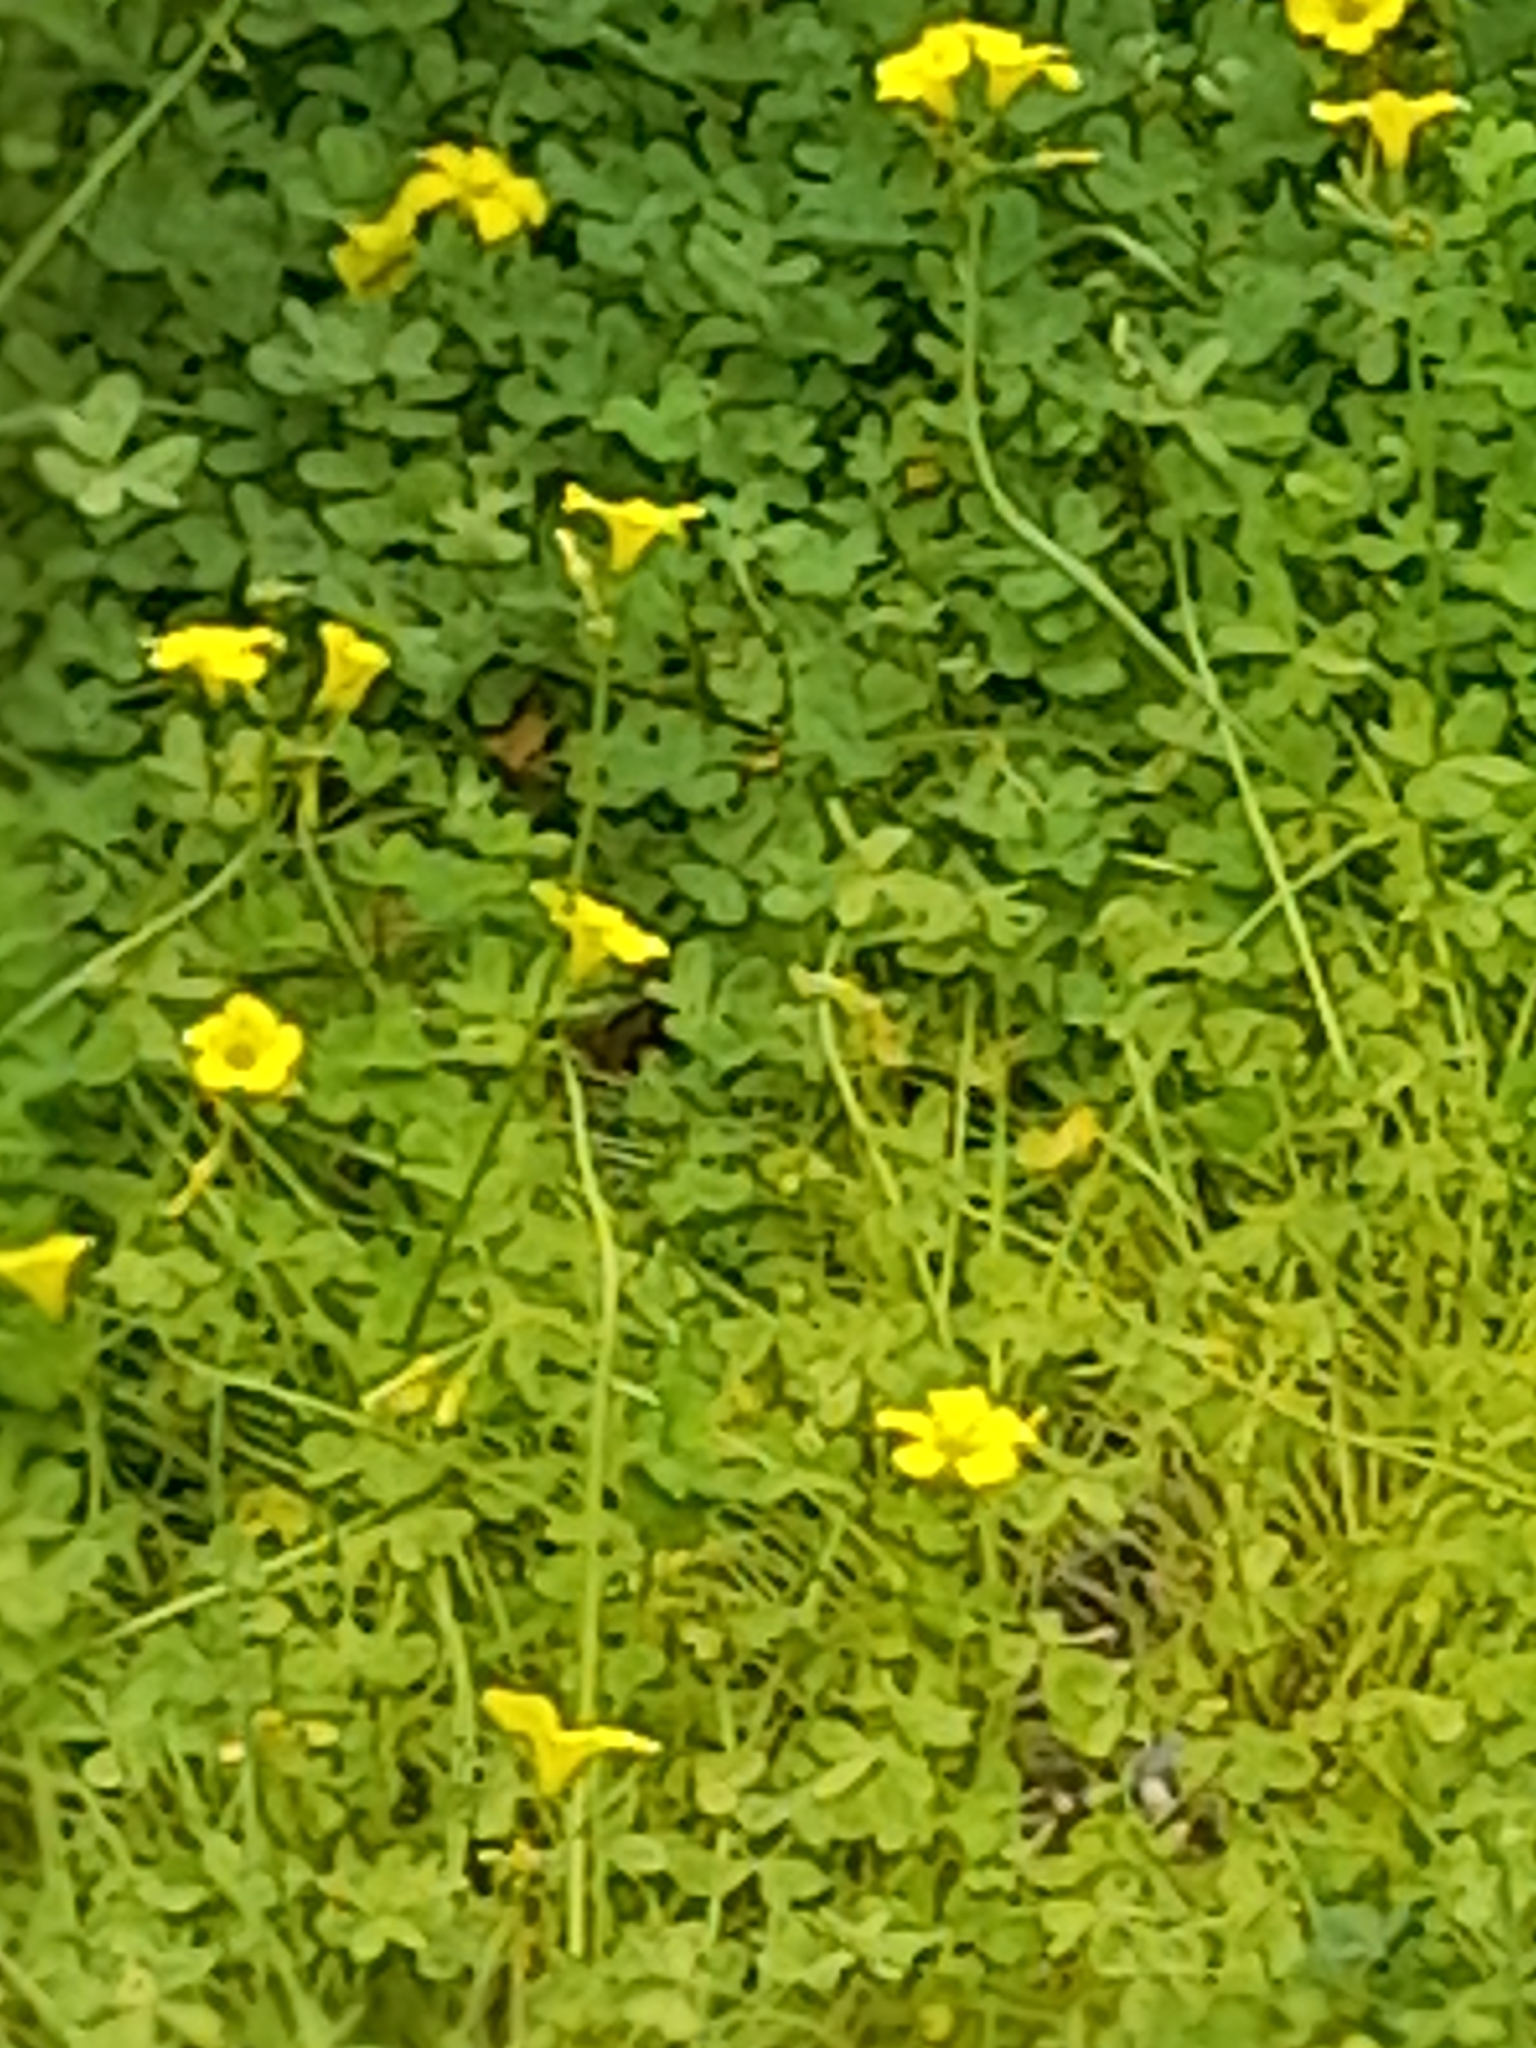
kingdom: Plantae
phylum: Tracheophyta
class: Magnoliopsida
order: Oxalidales
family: Oxalidaceae
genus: Oxalis
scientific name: Oxalis pes-caprae
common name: Bermuda-buttercup
